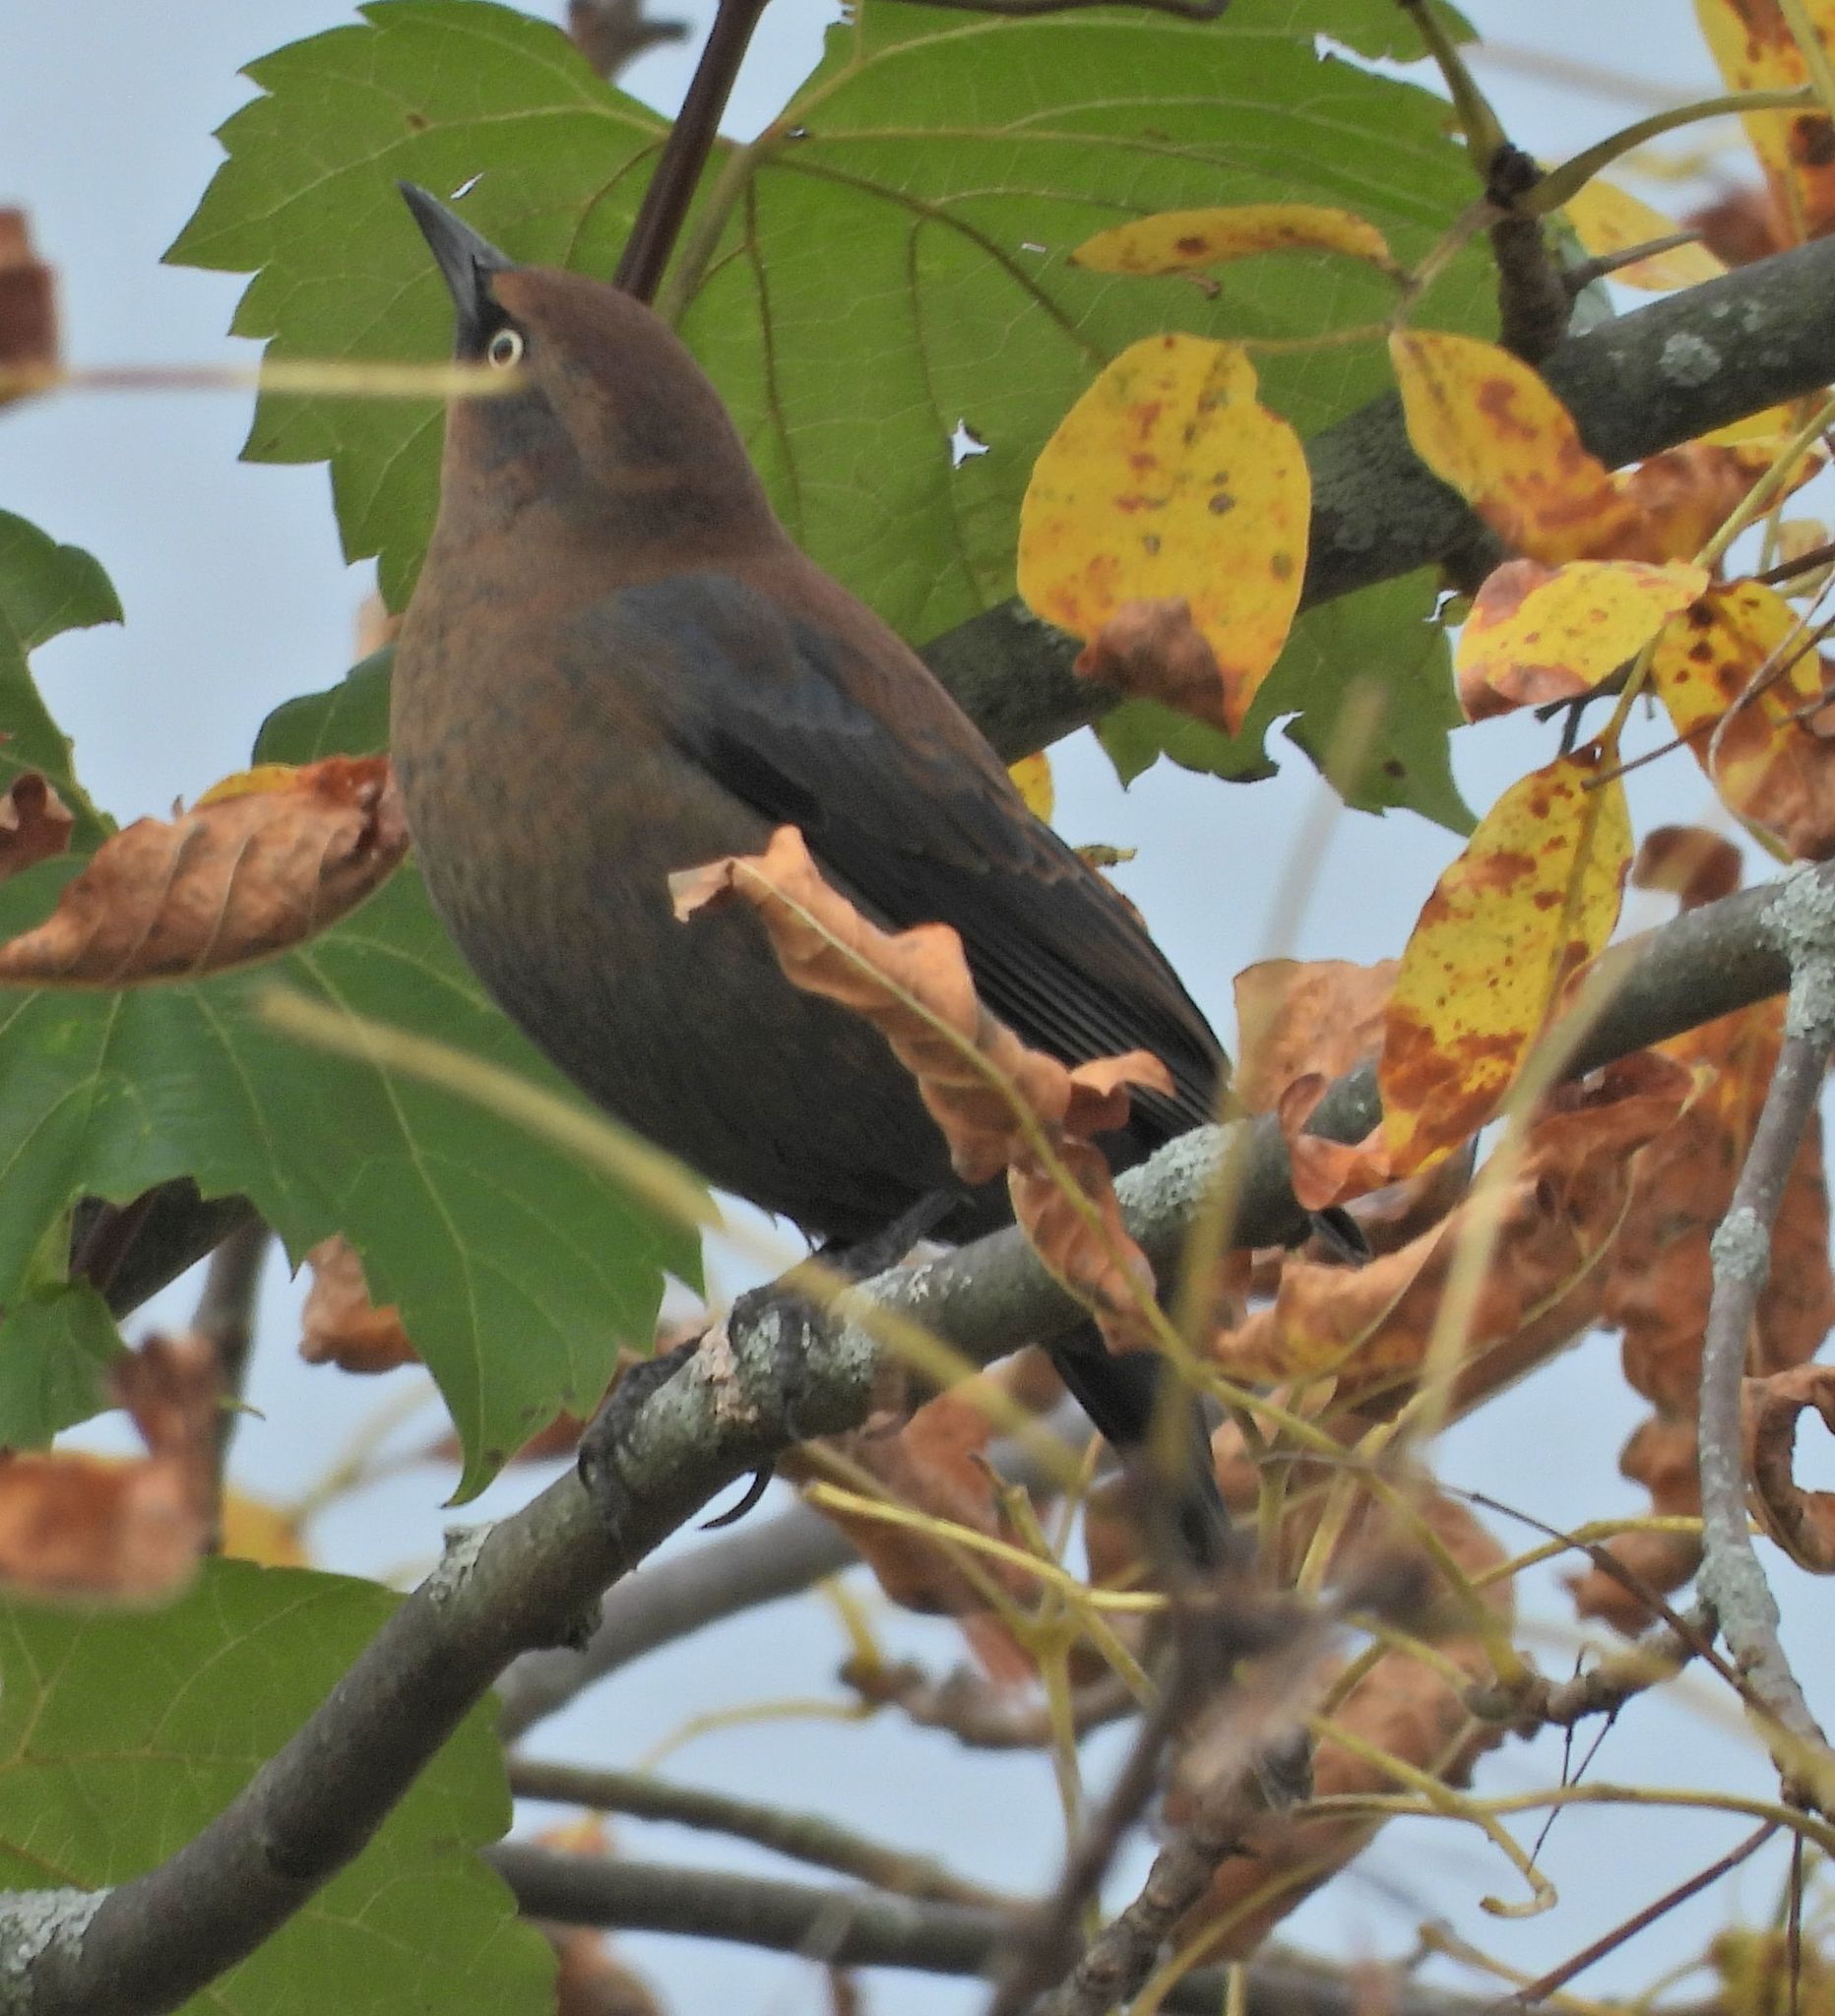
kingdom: Animalia
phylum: Chordata
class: Aves
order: Passeriformes
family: Icteridae
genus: Euphagus
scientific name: Euphagus carolinus
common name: Rusty blackbird
